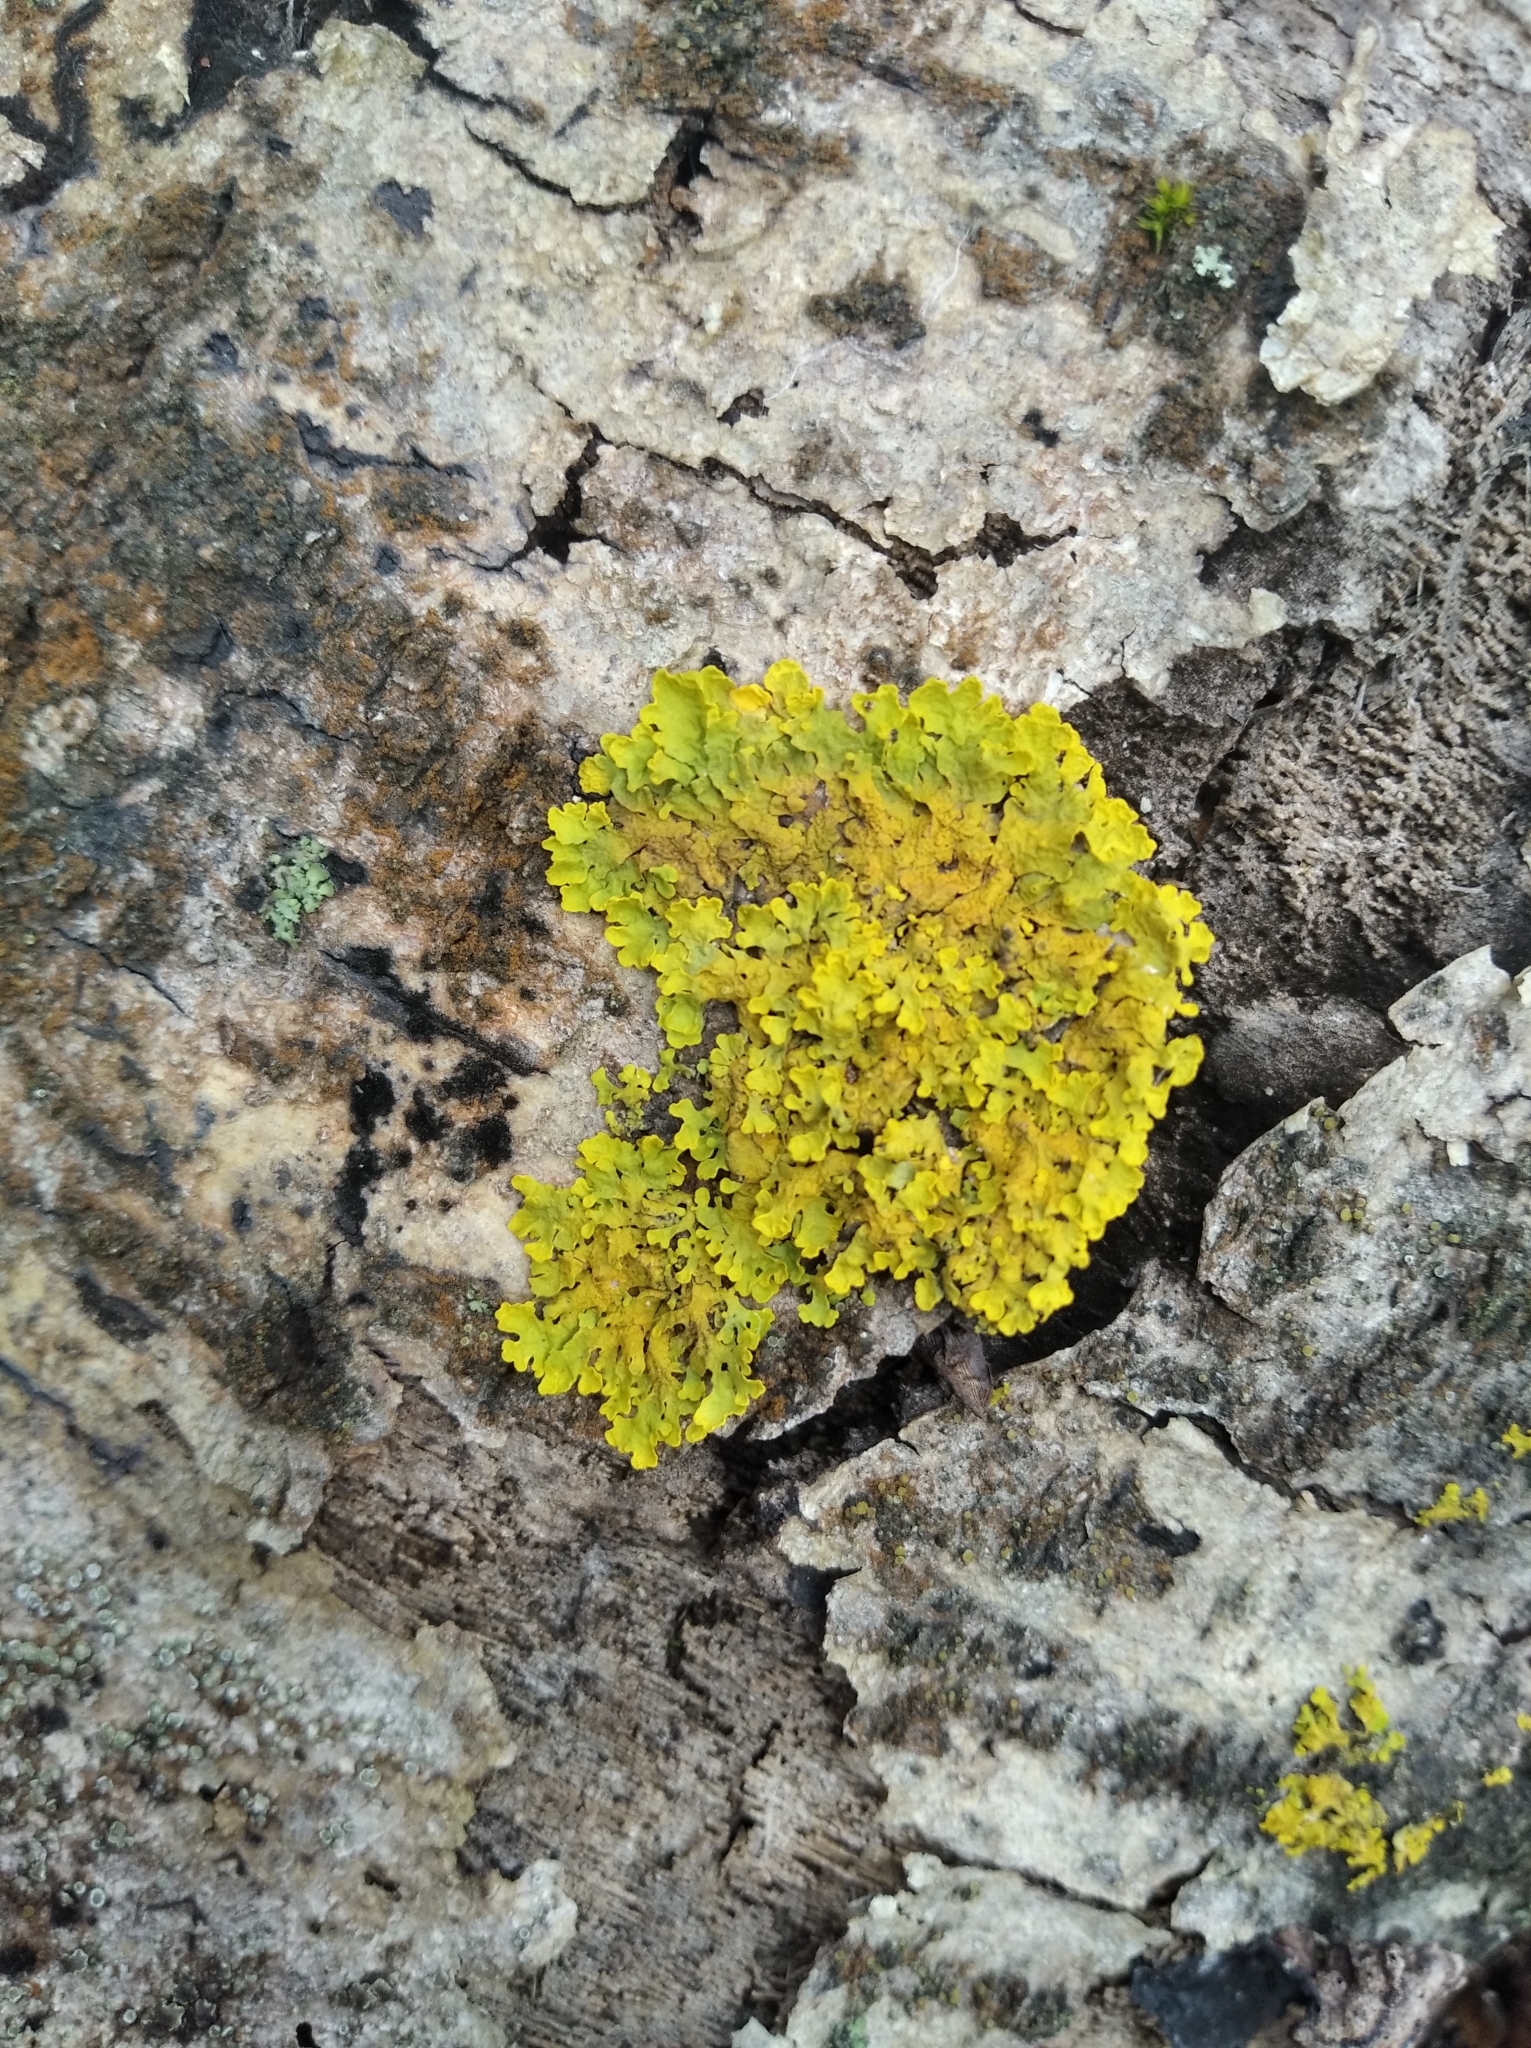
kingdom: Fungi
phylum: Ascomycota
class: Lecanoromycetes
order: Teloschistales
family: Teloschistaceae
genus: Xanthoria
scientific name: Xanthoria parietina
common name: Common orange lichen
